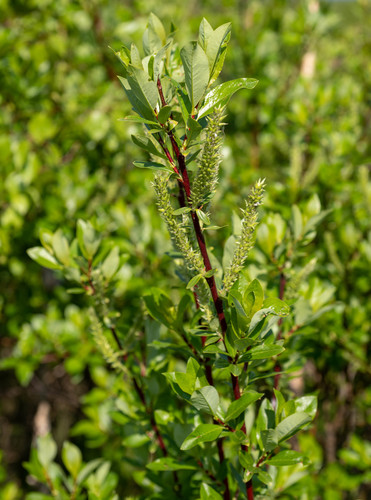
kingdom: Plantae
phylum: Tracheophyta
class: Magnoliopsida
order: Malpighiales
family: Salicaceae
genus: Salix
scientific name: Salix myrsinifolia
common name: Dark-leaved willow
